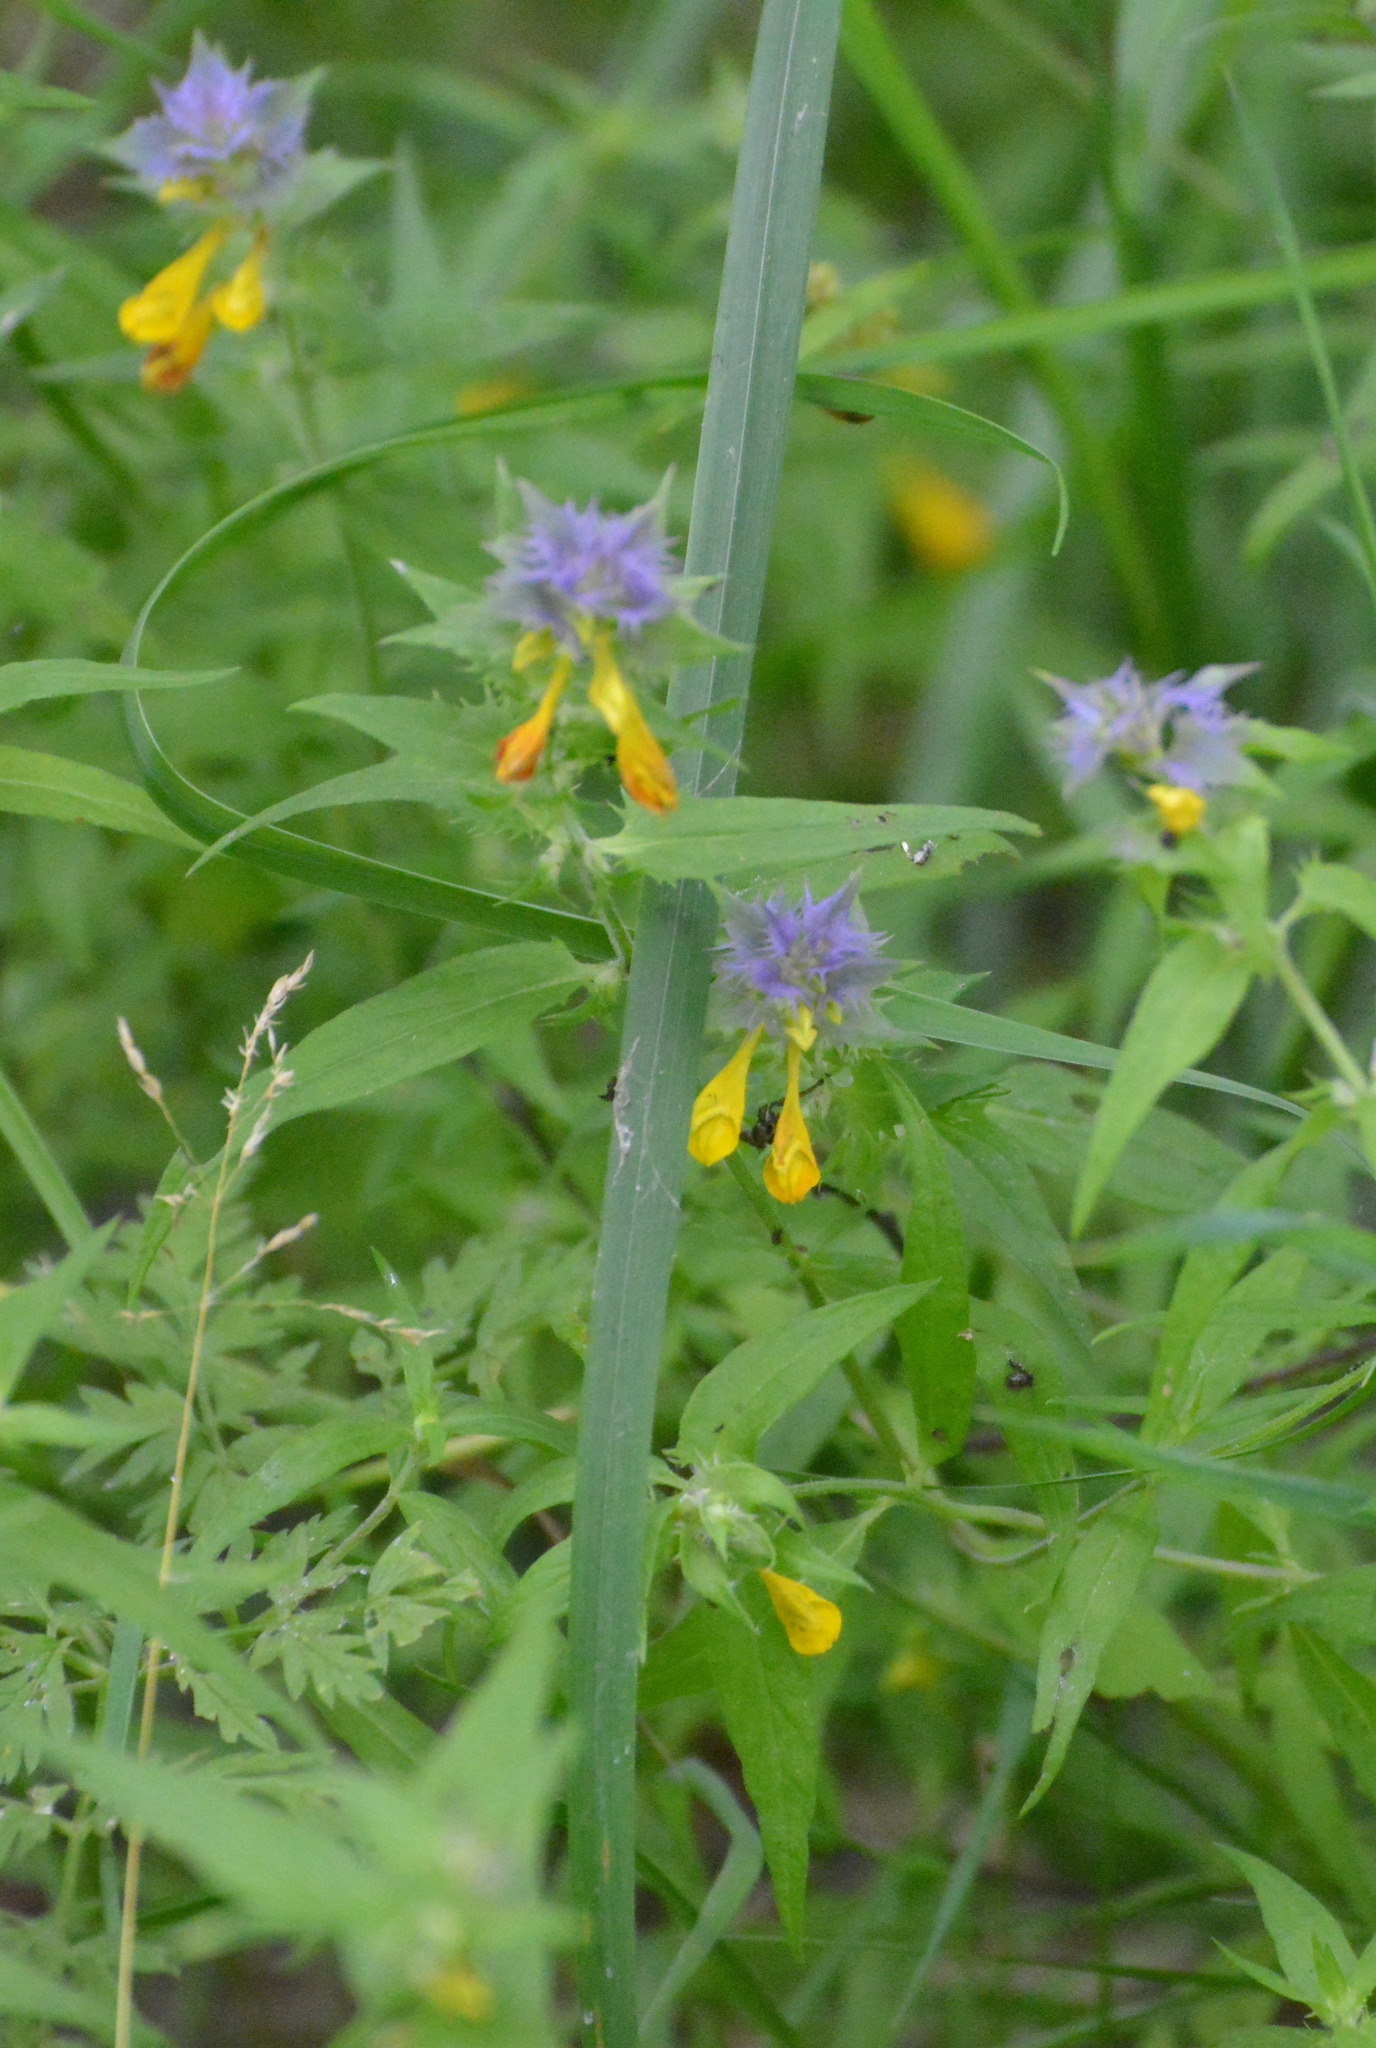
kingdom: Plantae
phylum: Tracheophyta
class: Magnoliopsida
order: Lamiales
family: Orobanchaceae
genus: Melampyrum
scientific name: Melampyrum nemorosum
